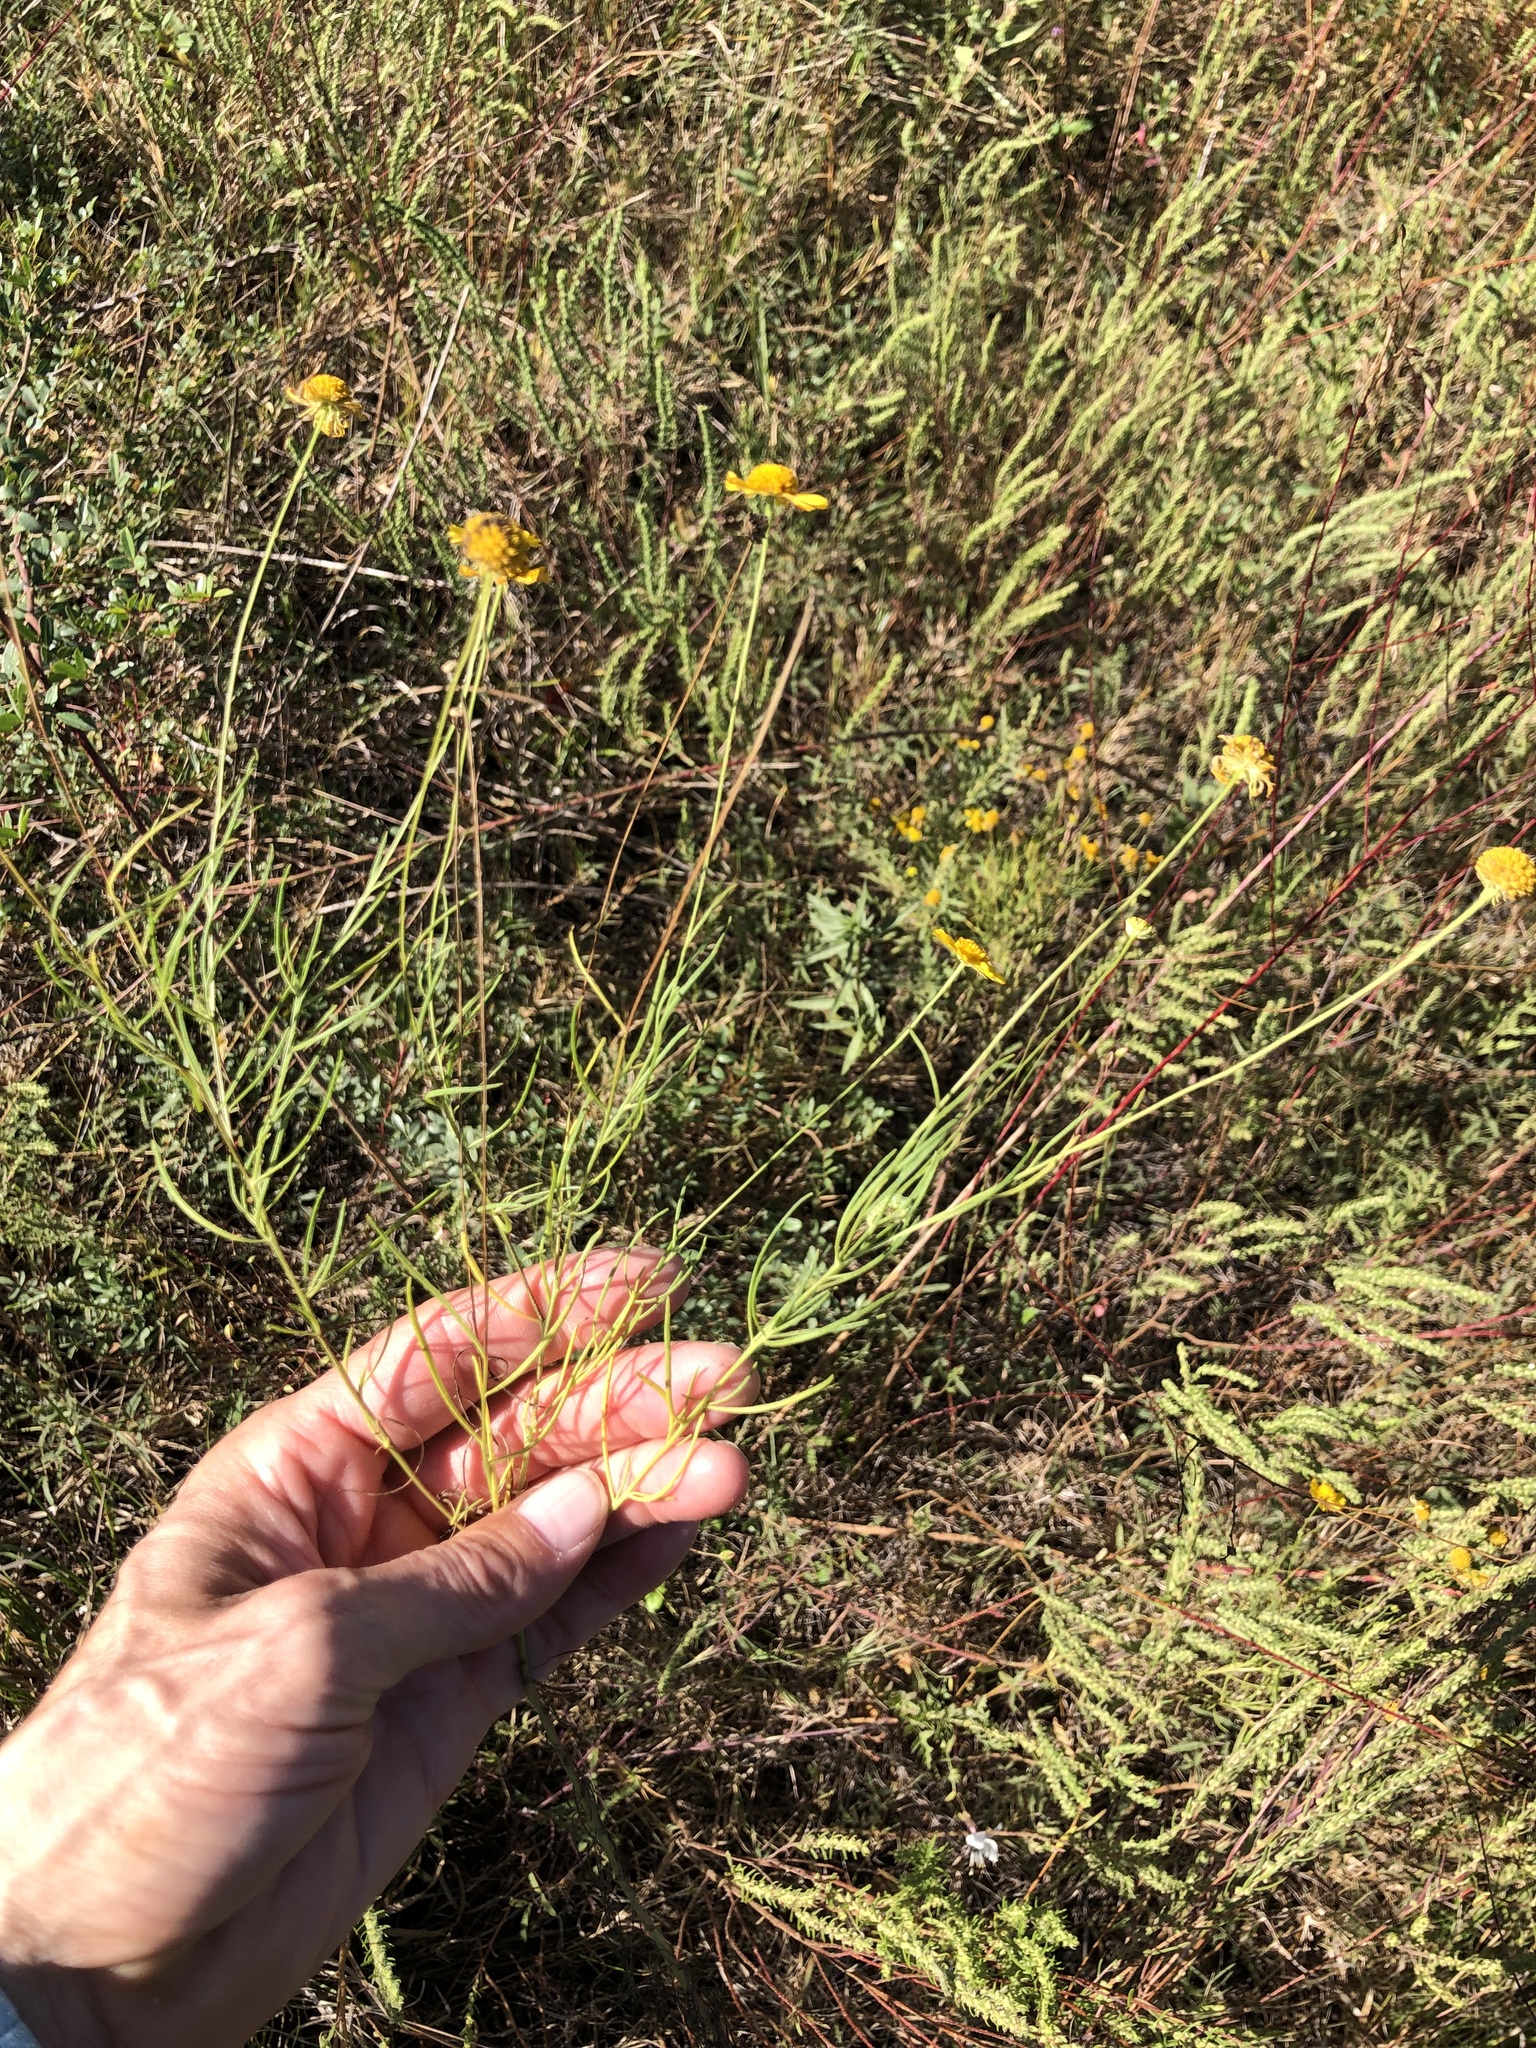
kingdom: Plantae
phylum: Tracheophyta
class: Magnoliopsida
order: Asterales
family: Asteraceae
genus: Helenium
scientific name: Helenium amarum
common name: Bitter sneezeweed
